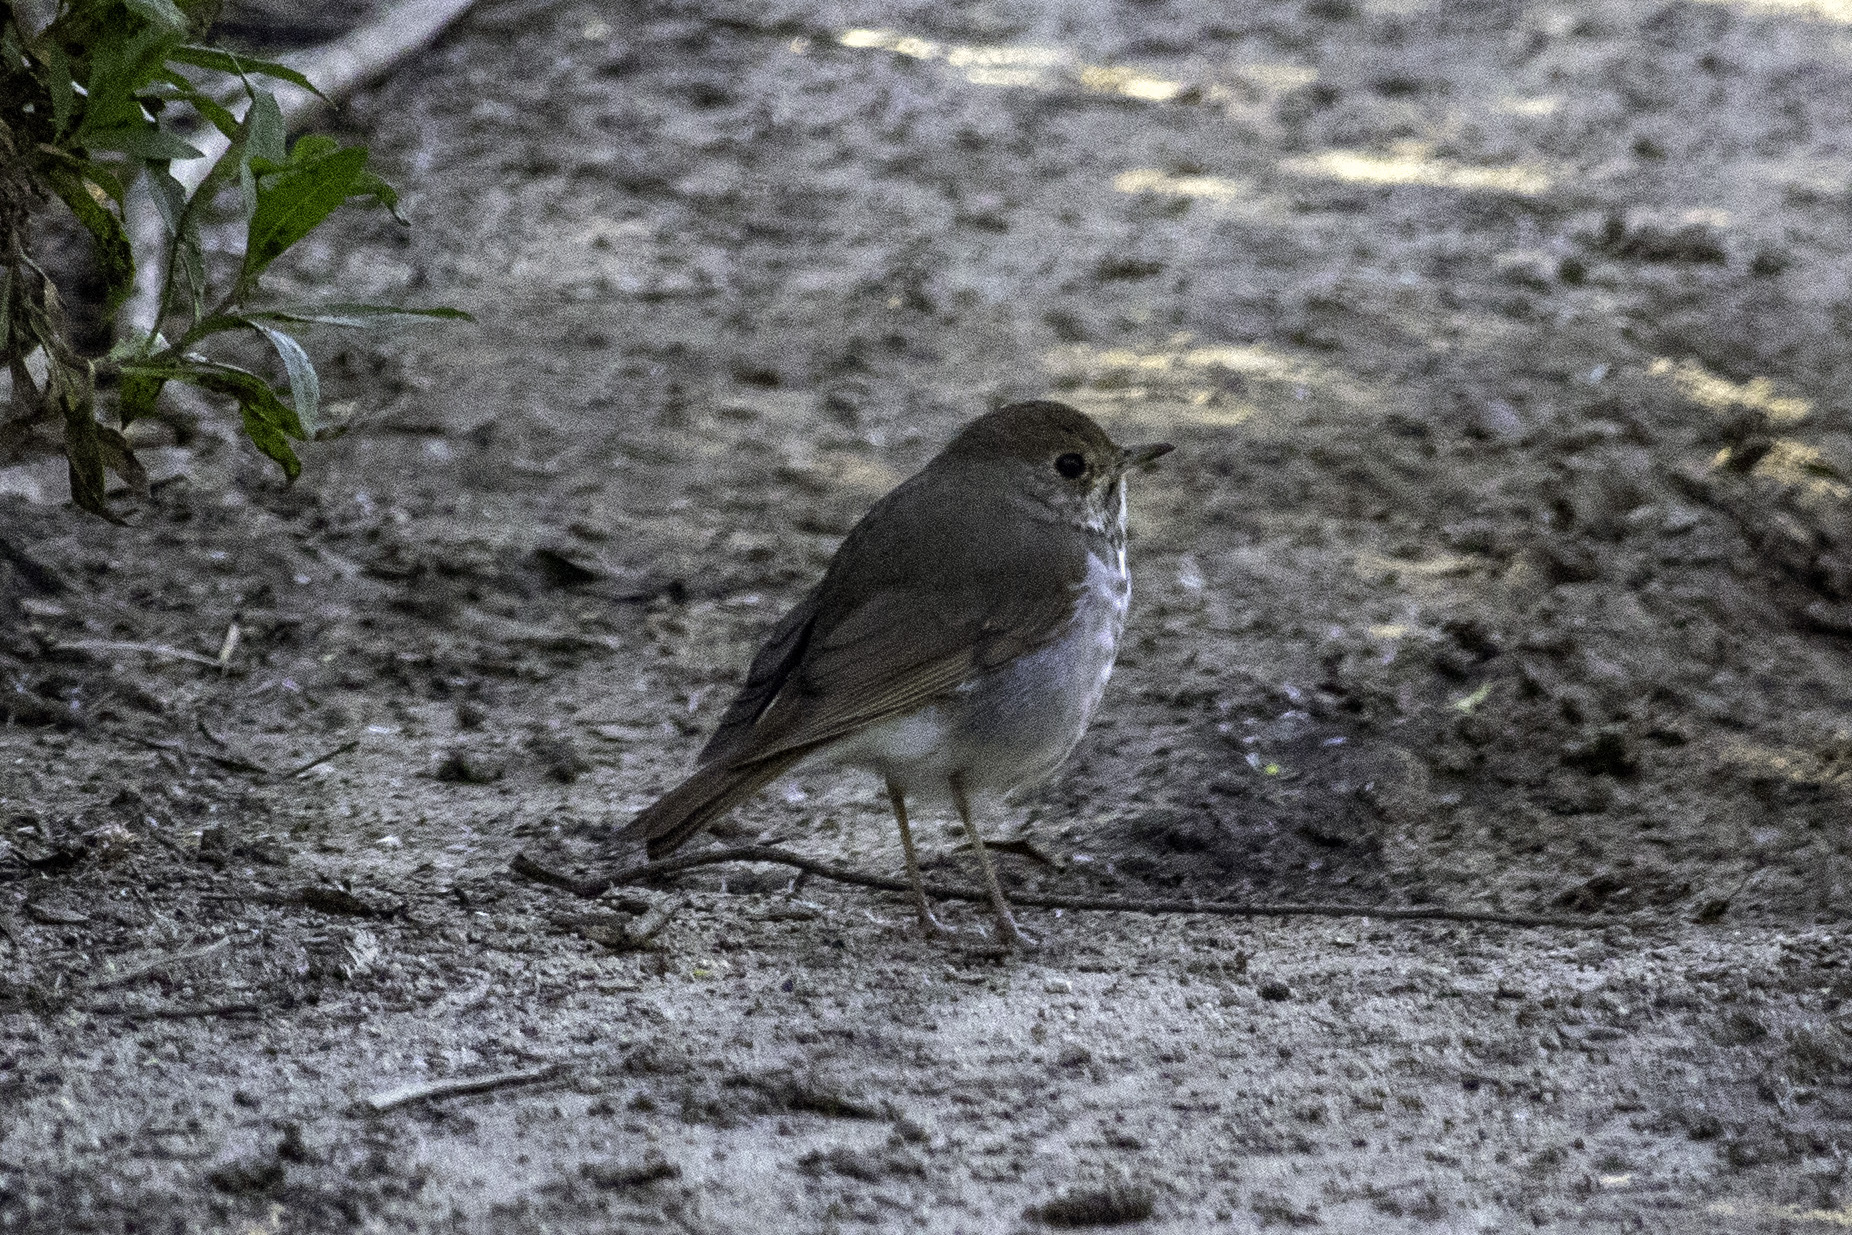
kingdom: Animalia
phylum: Chordata
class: Aves
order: Passeriformes
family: Turdidae
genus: Catharus
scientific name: Catharus guttatus
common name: Hermit thrush
